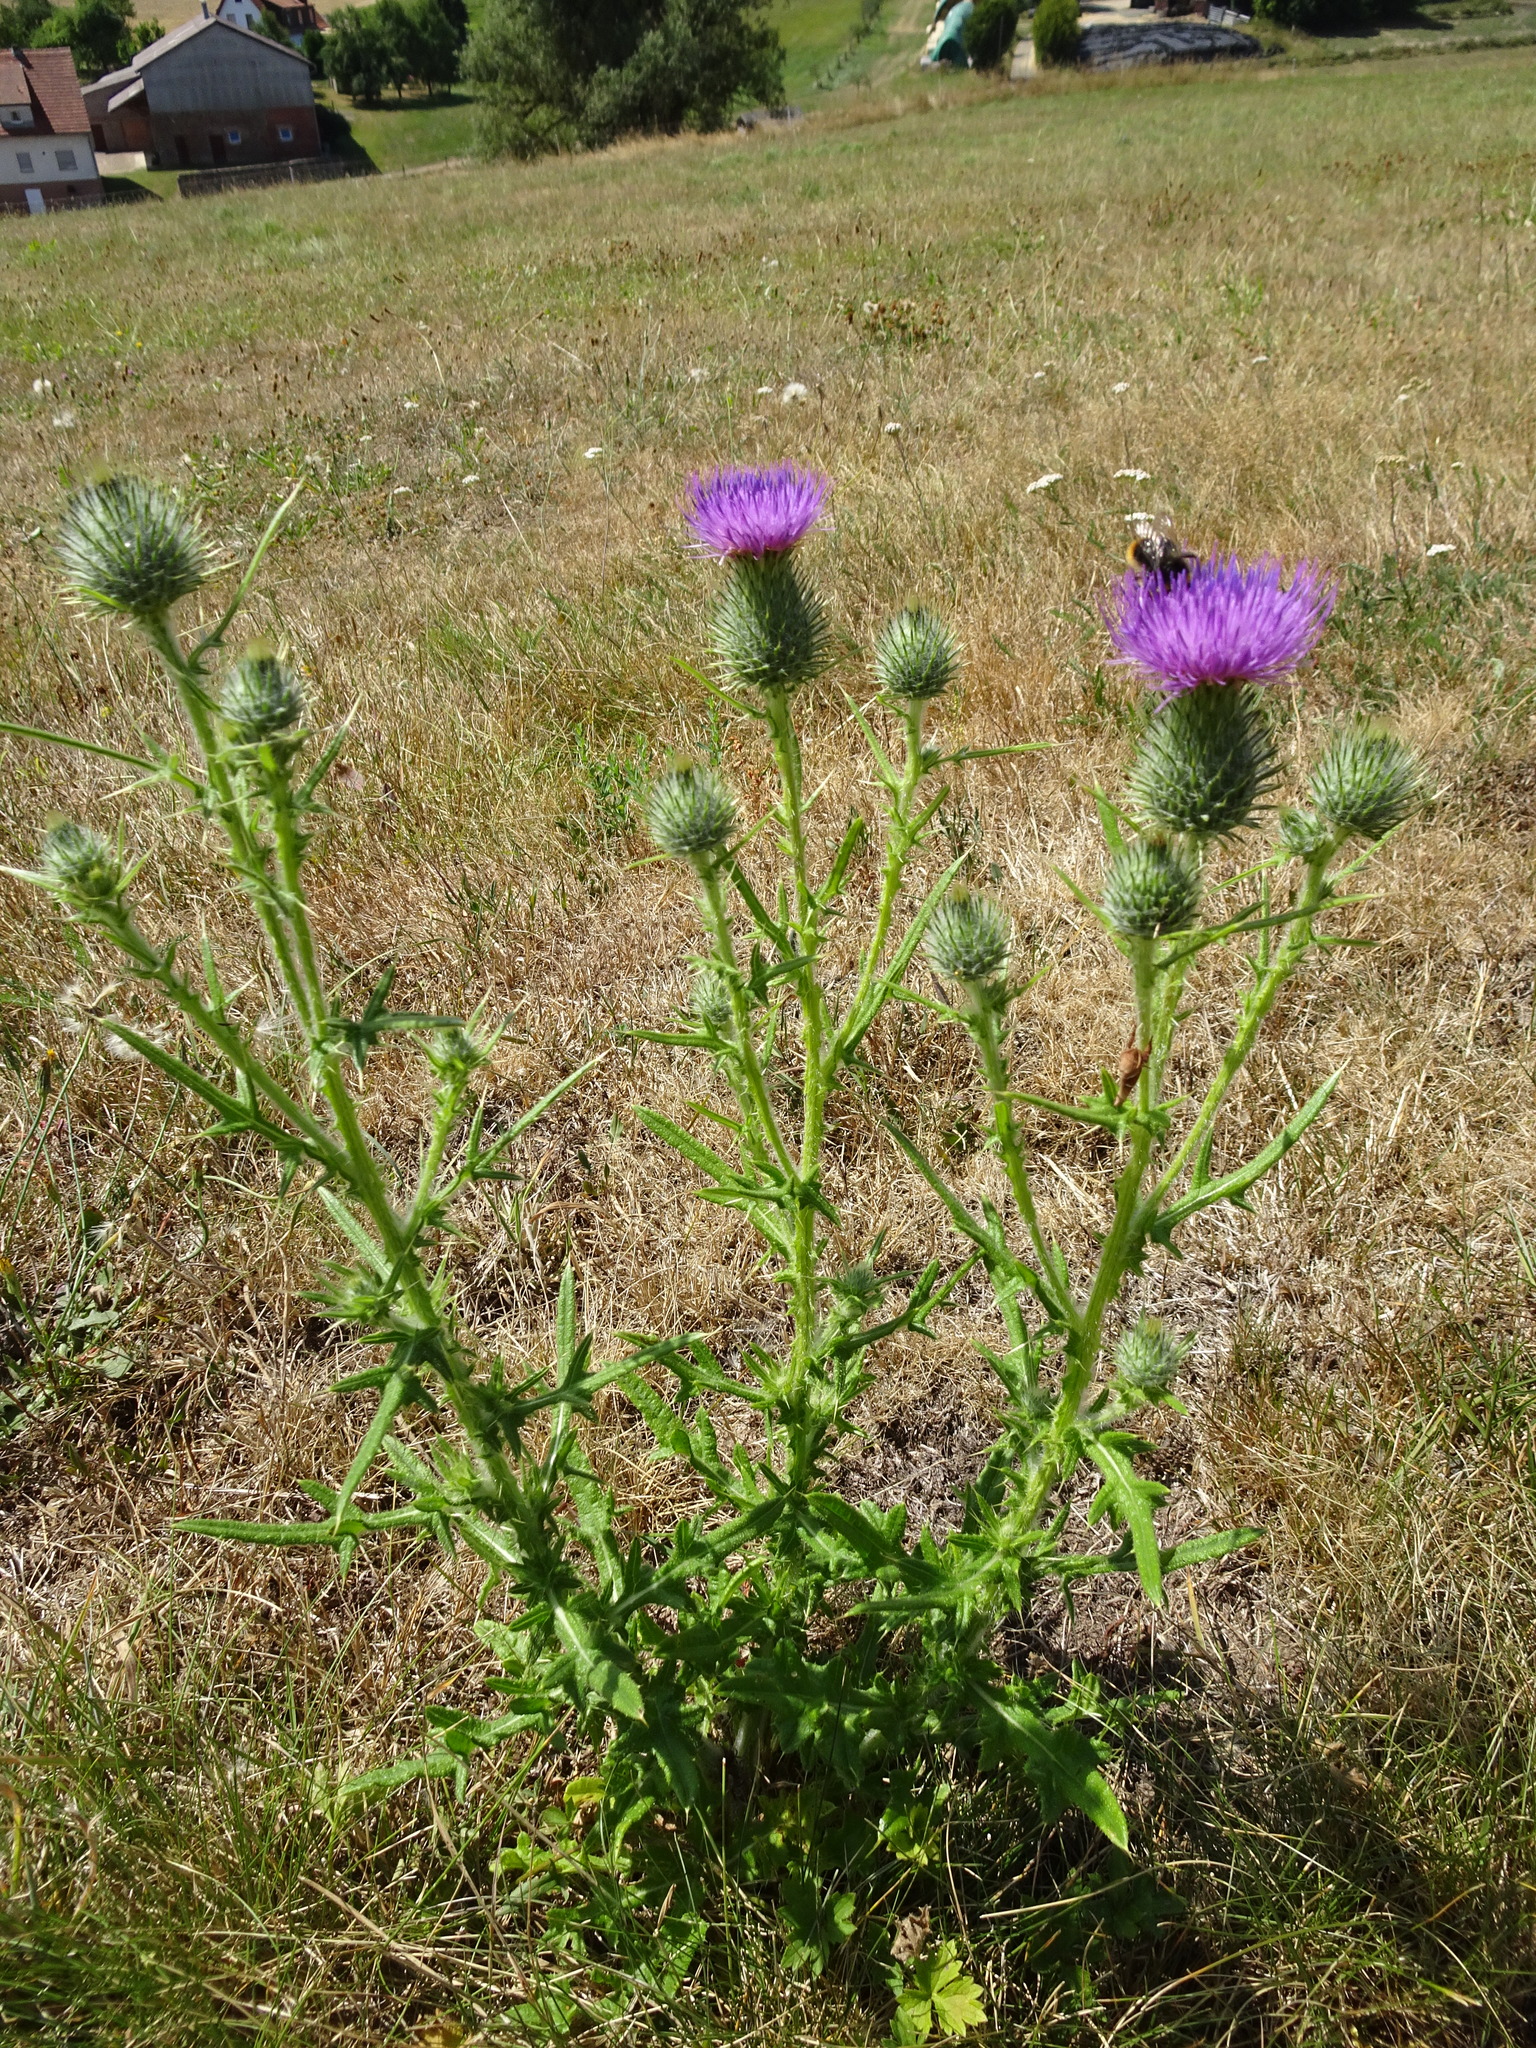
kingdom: Plantae
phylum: Tracheophyta
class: Magnoliopsida
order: Asterales
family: Asteraceae
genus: Cirsium
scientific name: Cirsium vulgare
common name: Bull thistle
